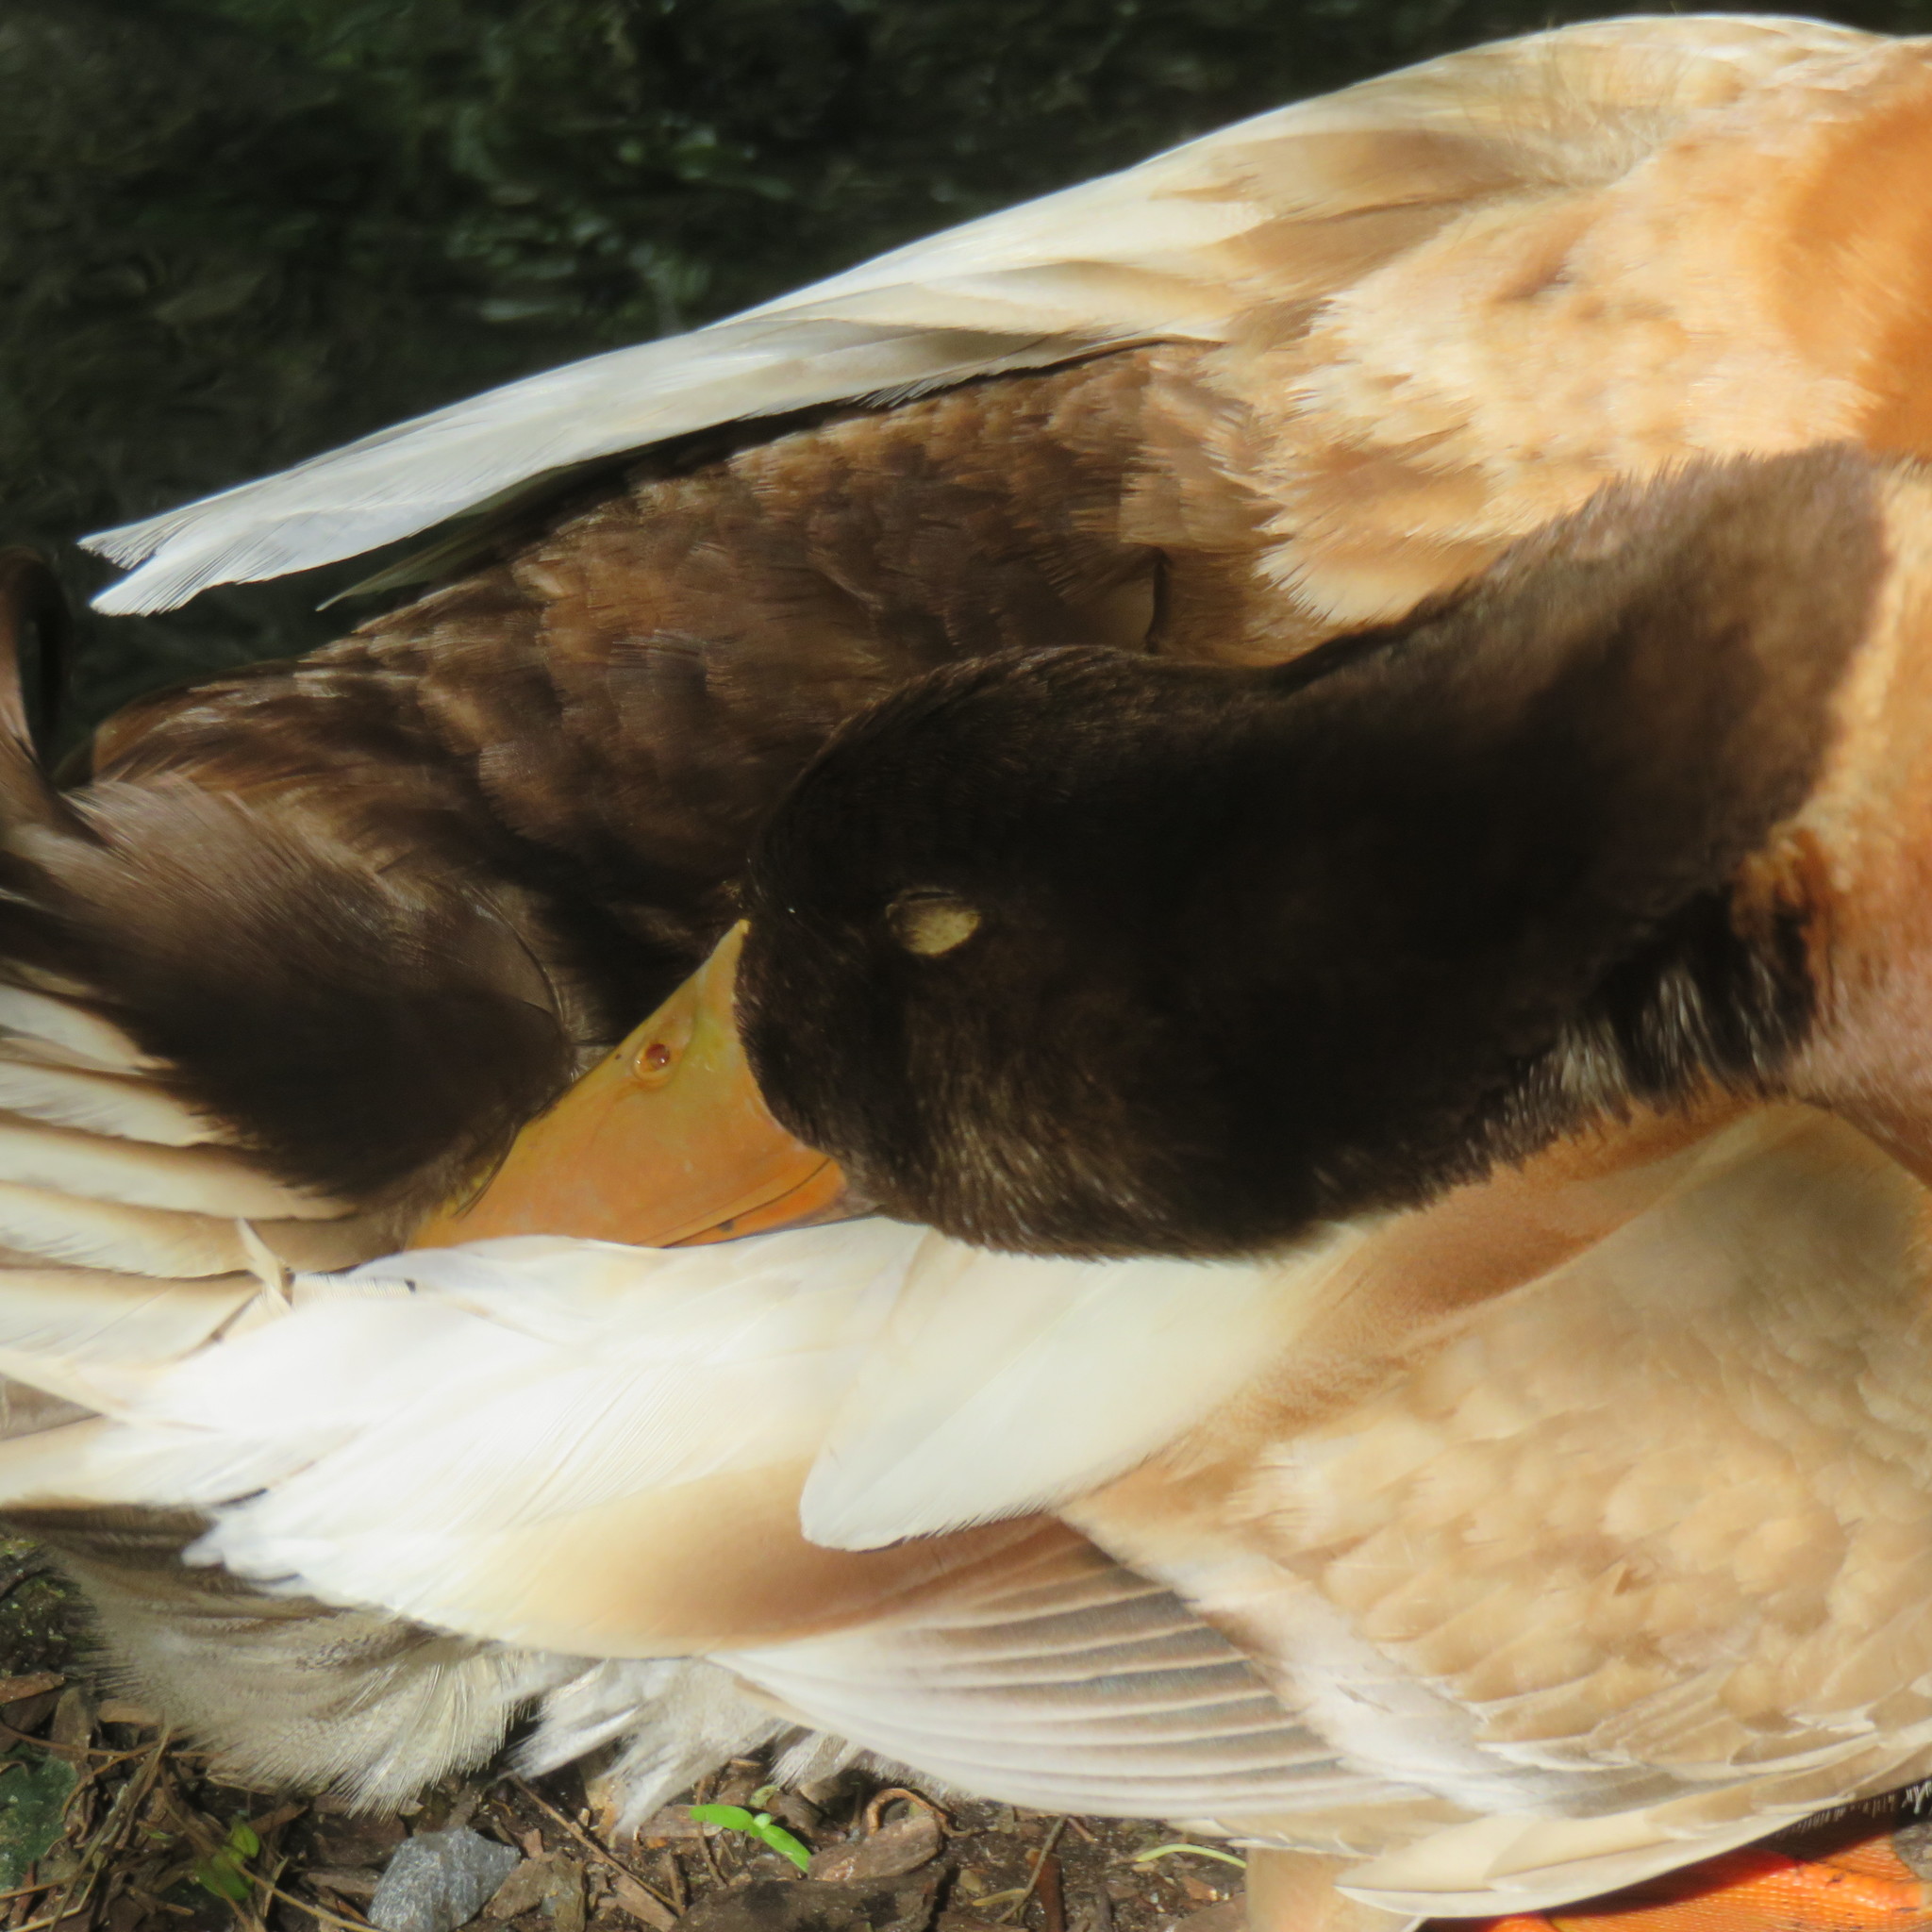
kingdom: Animalia
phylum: Chordata
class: Aves
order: Anseriformes
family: Anatidae
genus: Anas
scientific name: Anas platyrhynchos
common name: Mallard
